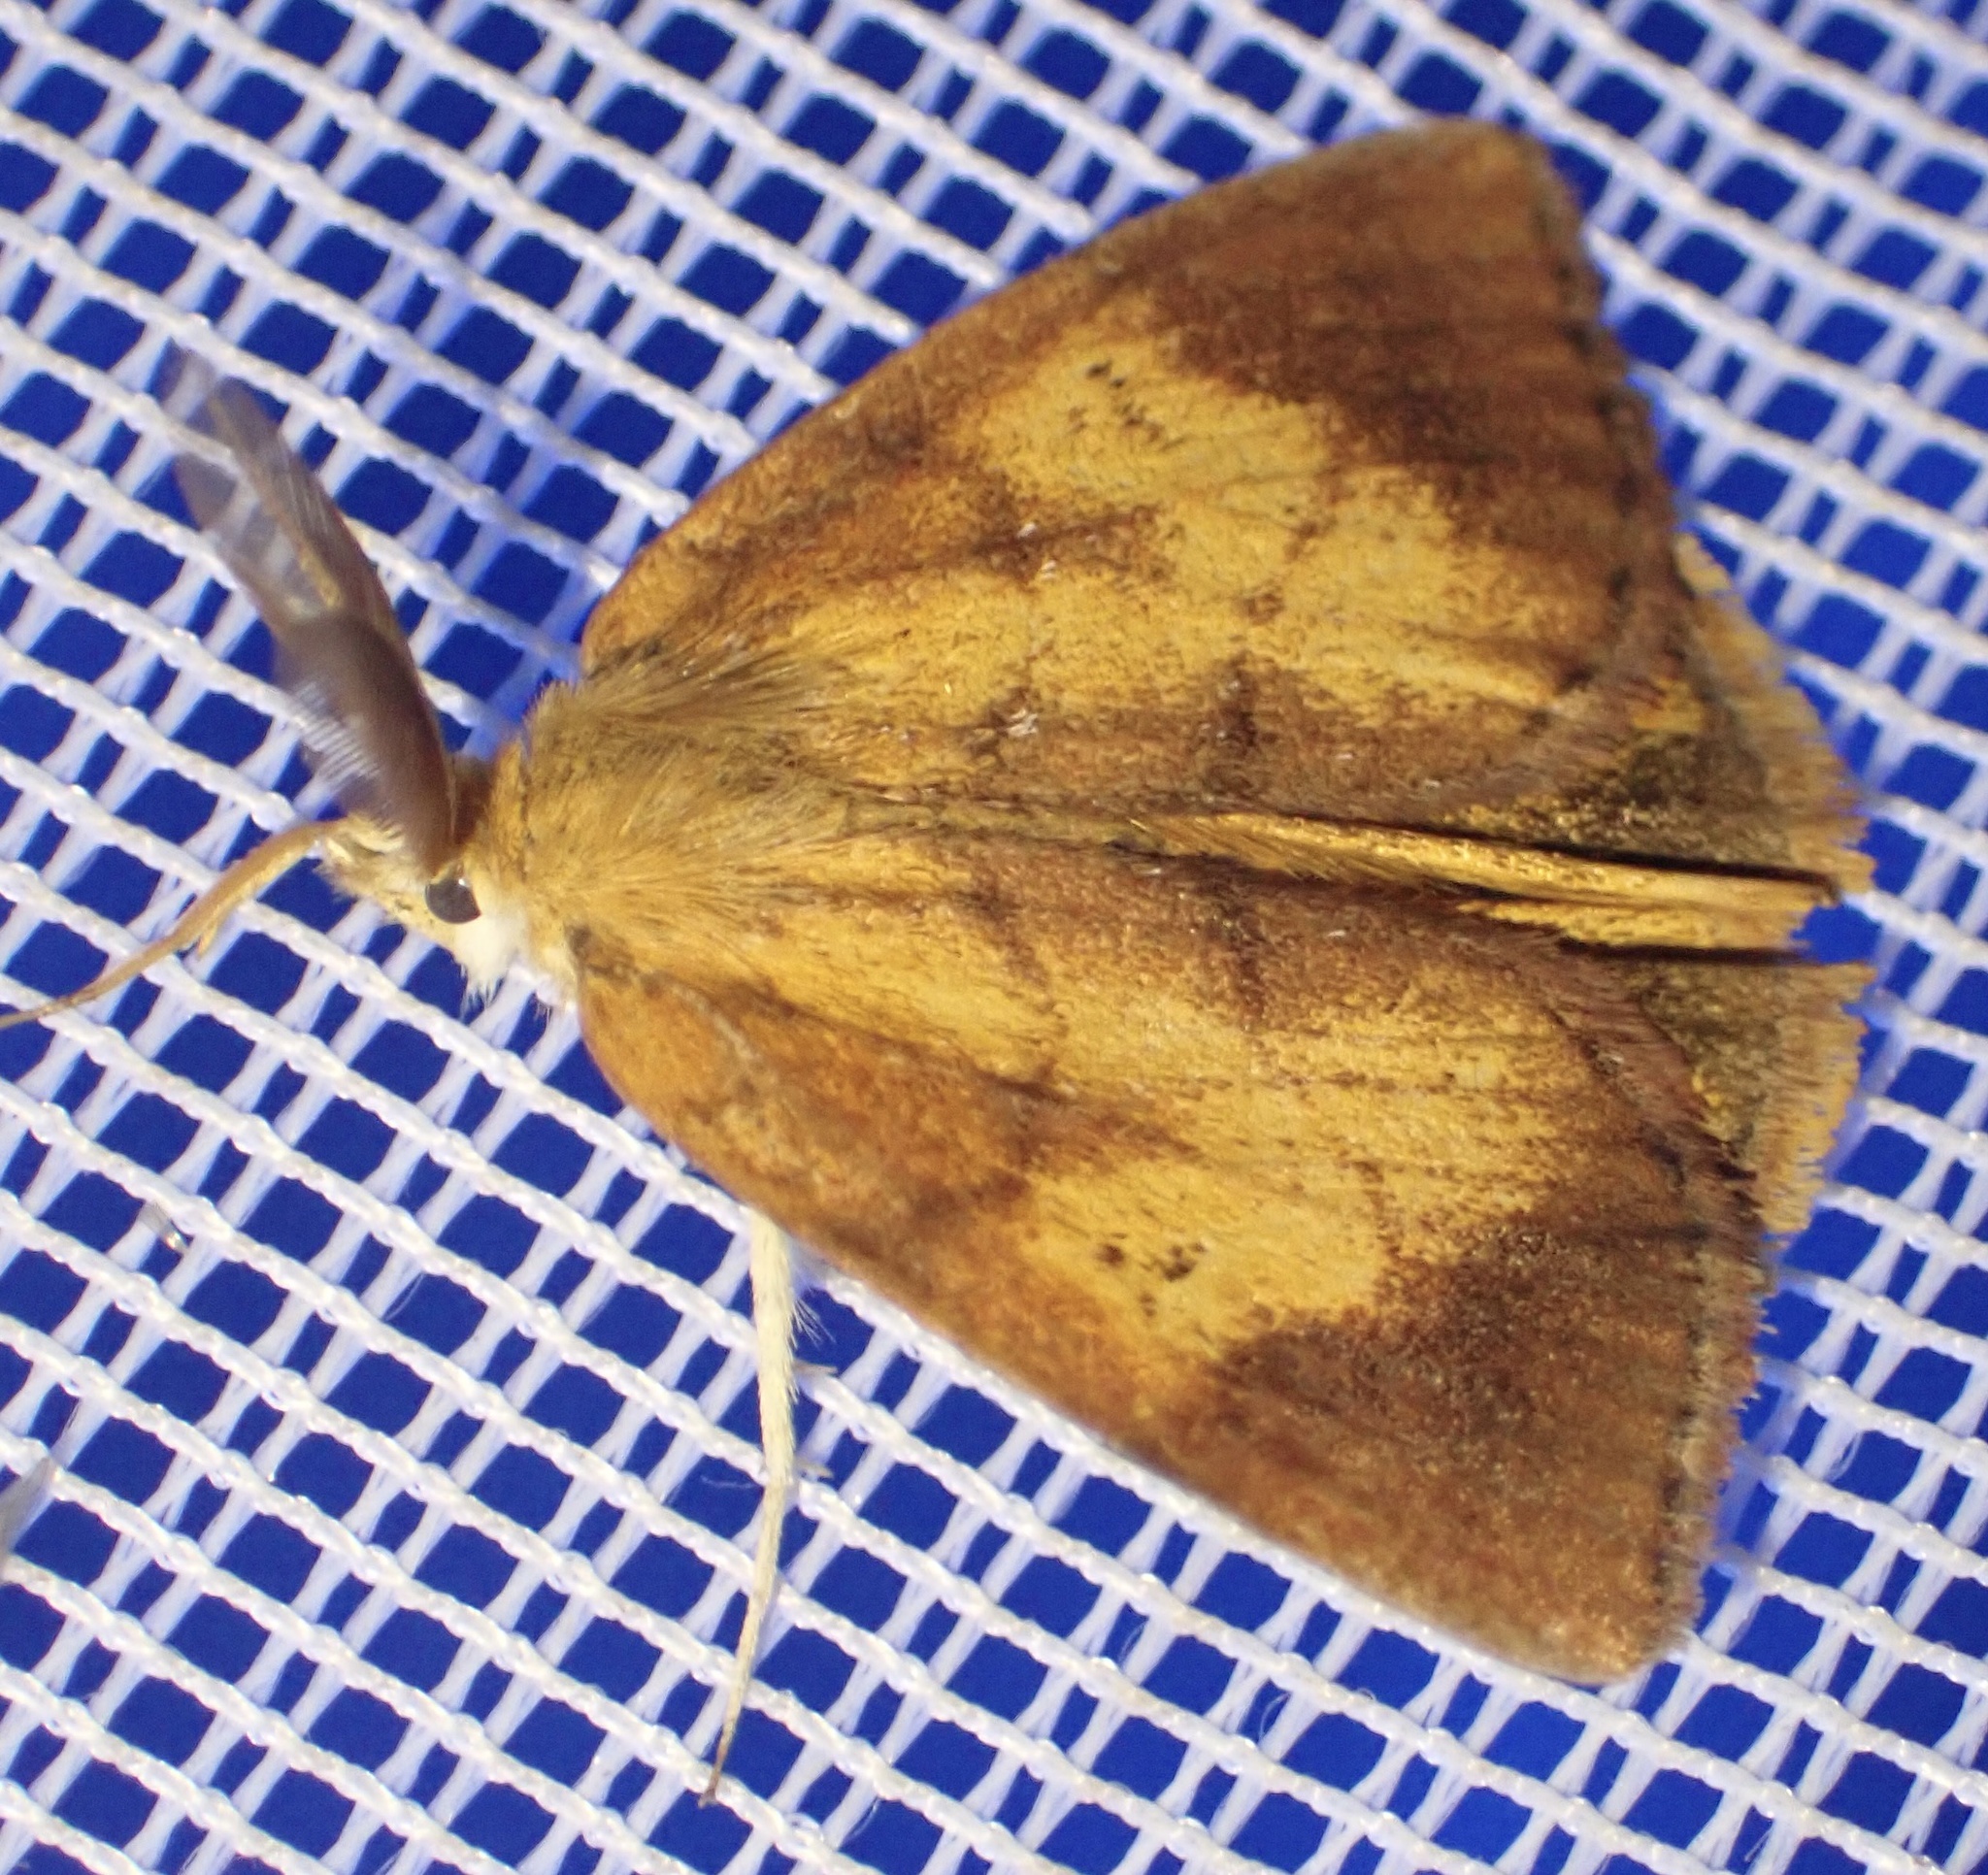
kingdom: Animalia
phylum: Arthropoda
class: Insecta
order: Lepidoptera
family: Erebidae
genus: Aroa
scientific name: Aroa discalis
